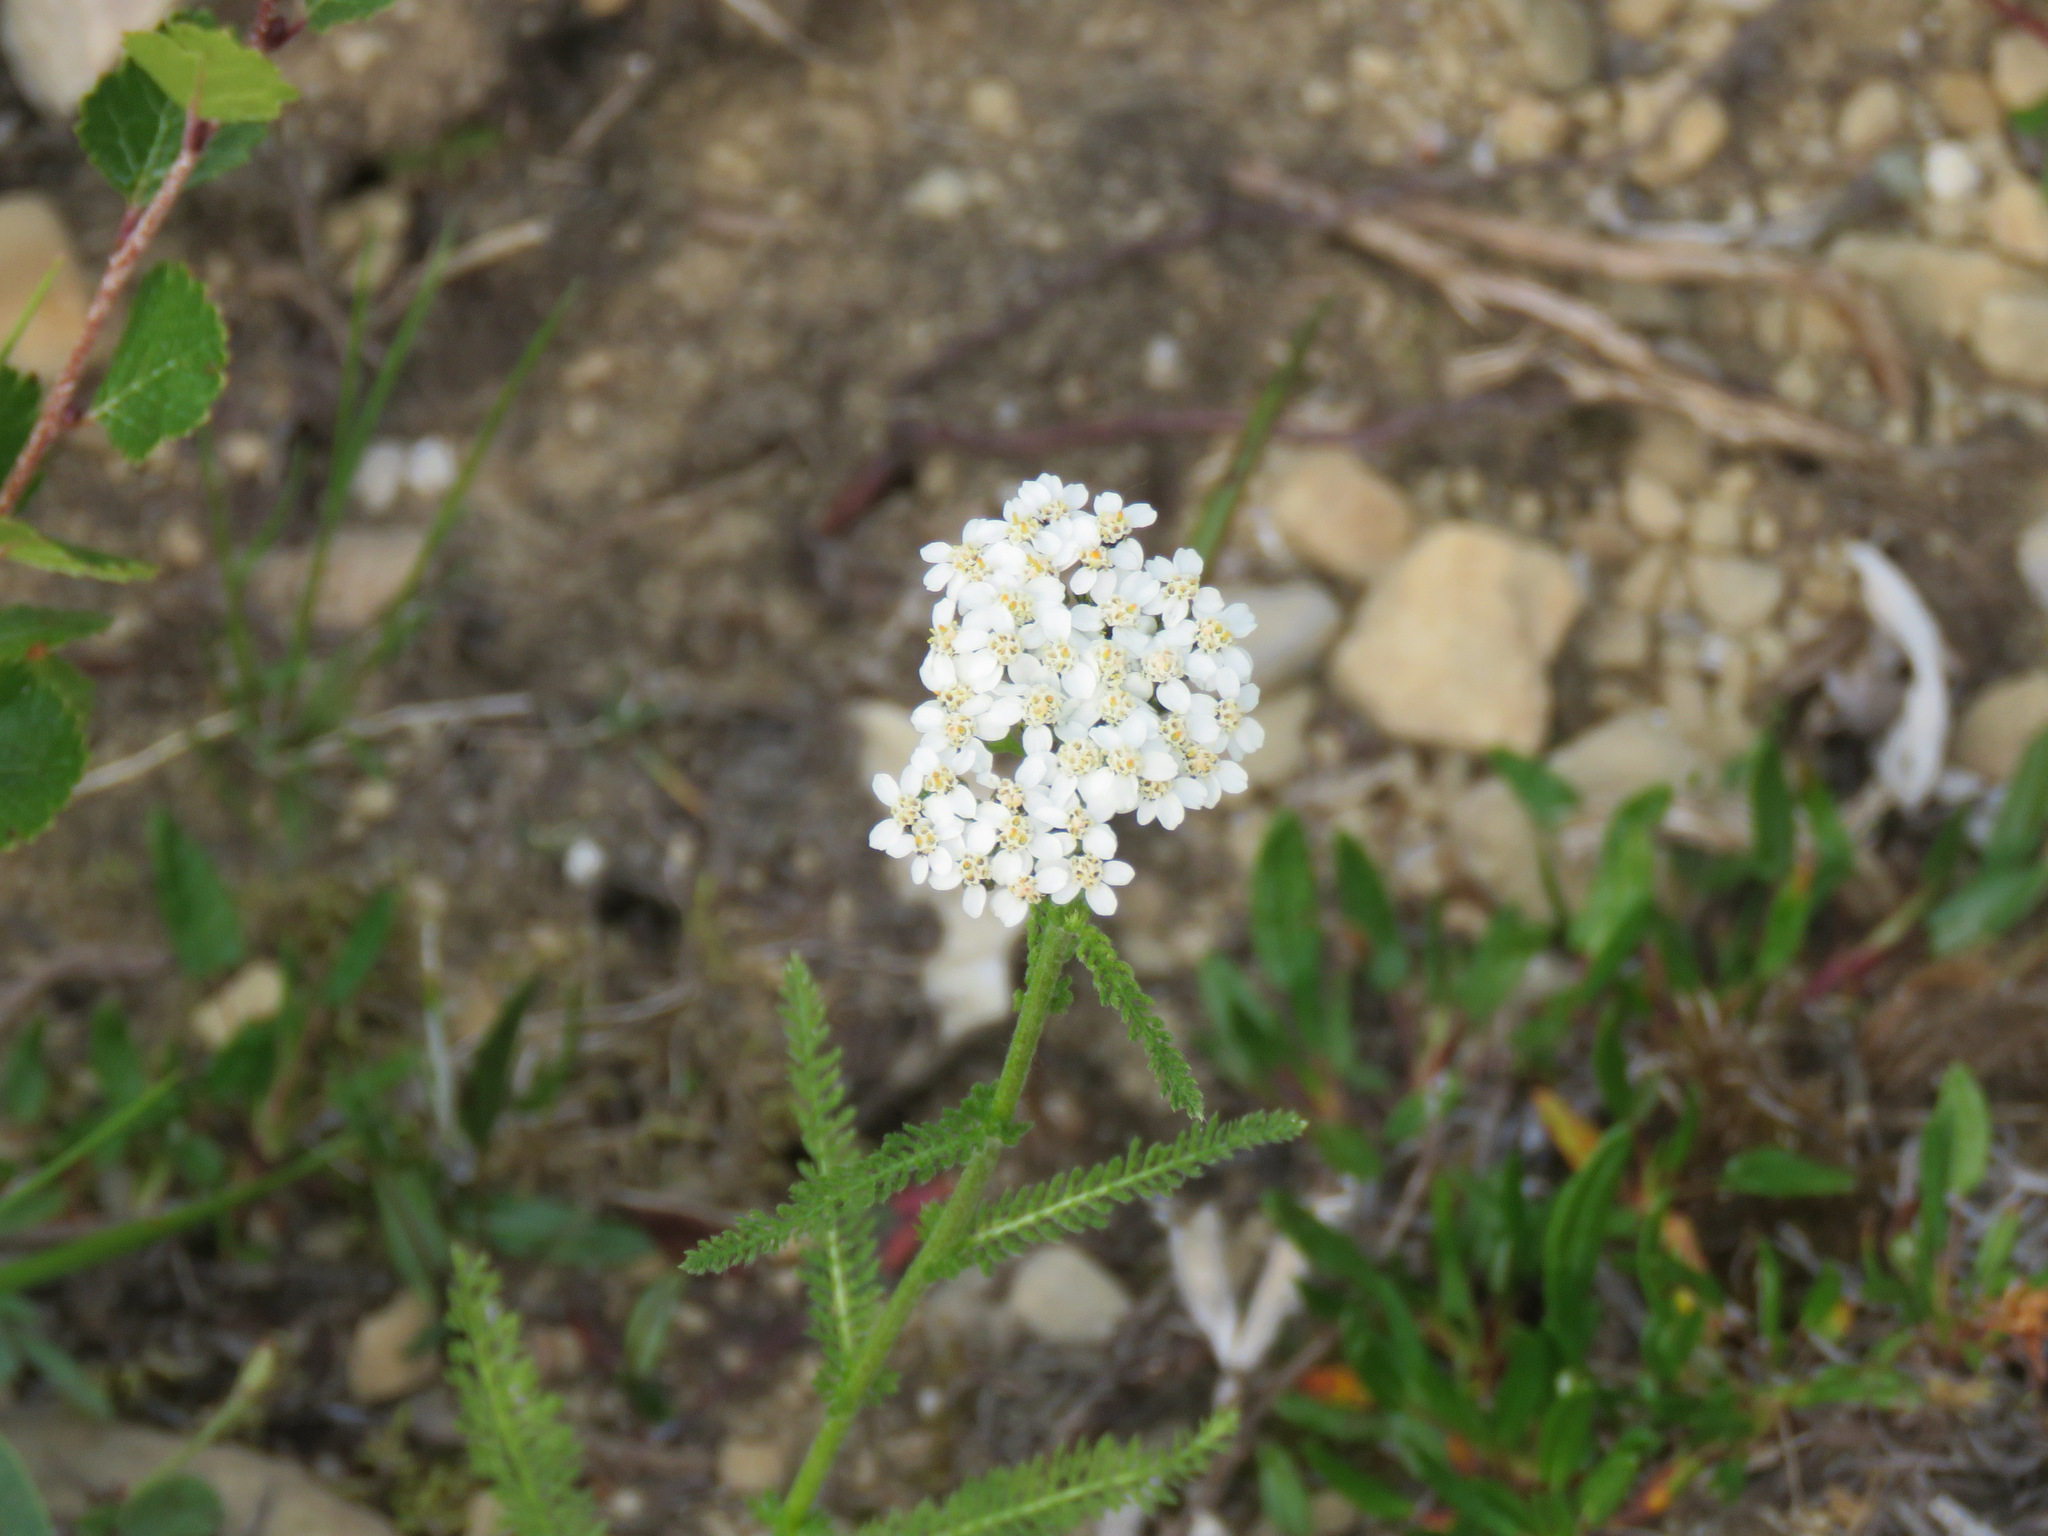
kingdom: Plantae
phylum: Tracheophyta
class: Magnoliopsida
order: Asterales
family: Asteraceae
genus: Achillea
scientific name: Achillea millefolium
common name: Yarrow
